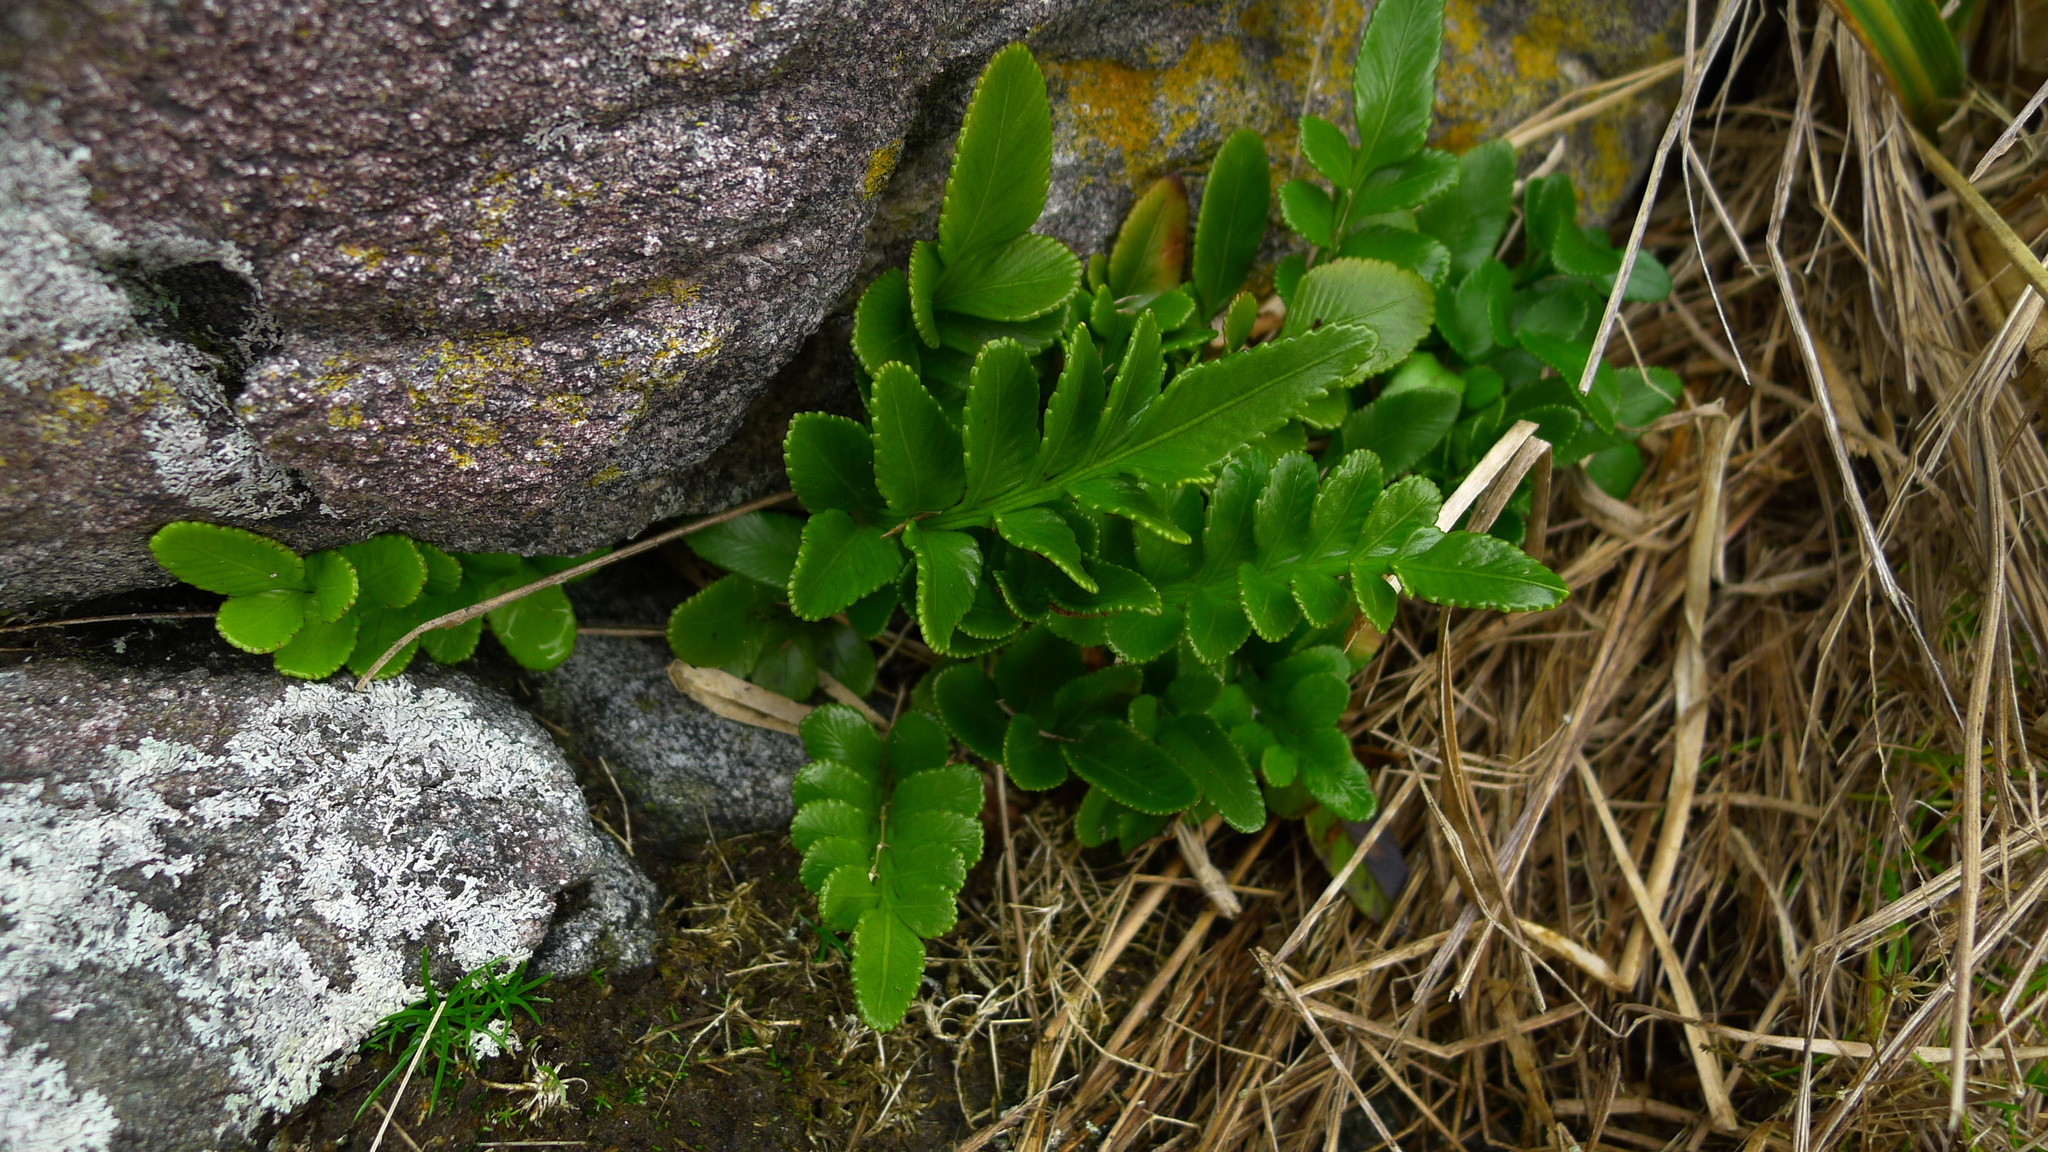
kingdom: Plantae
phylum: Tracheophyta
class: Polypodiopsida
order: Polypodiales
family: Aspleniaceae
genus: Asplenium
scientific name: Asplenium obtusatum
